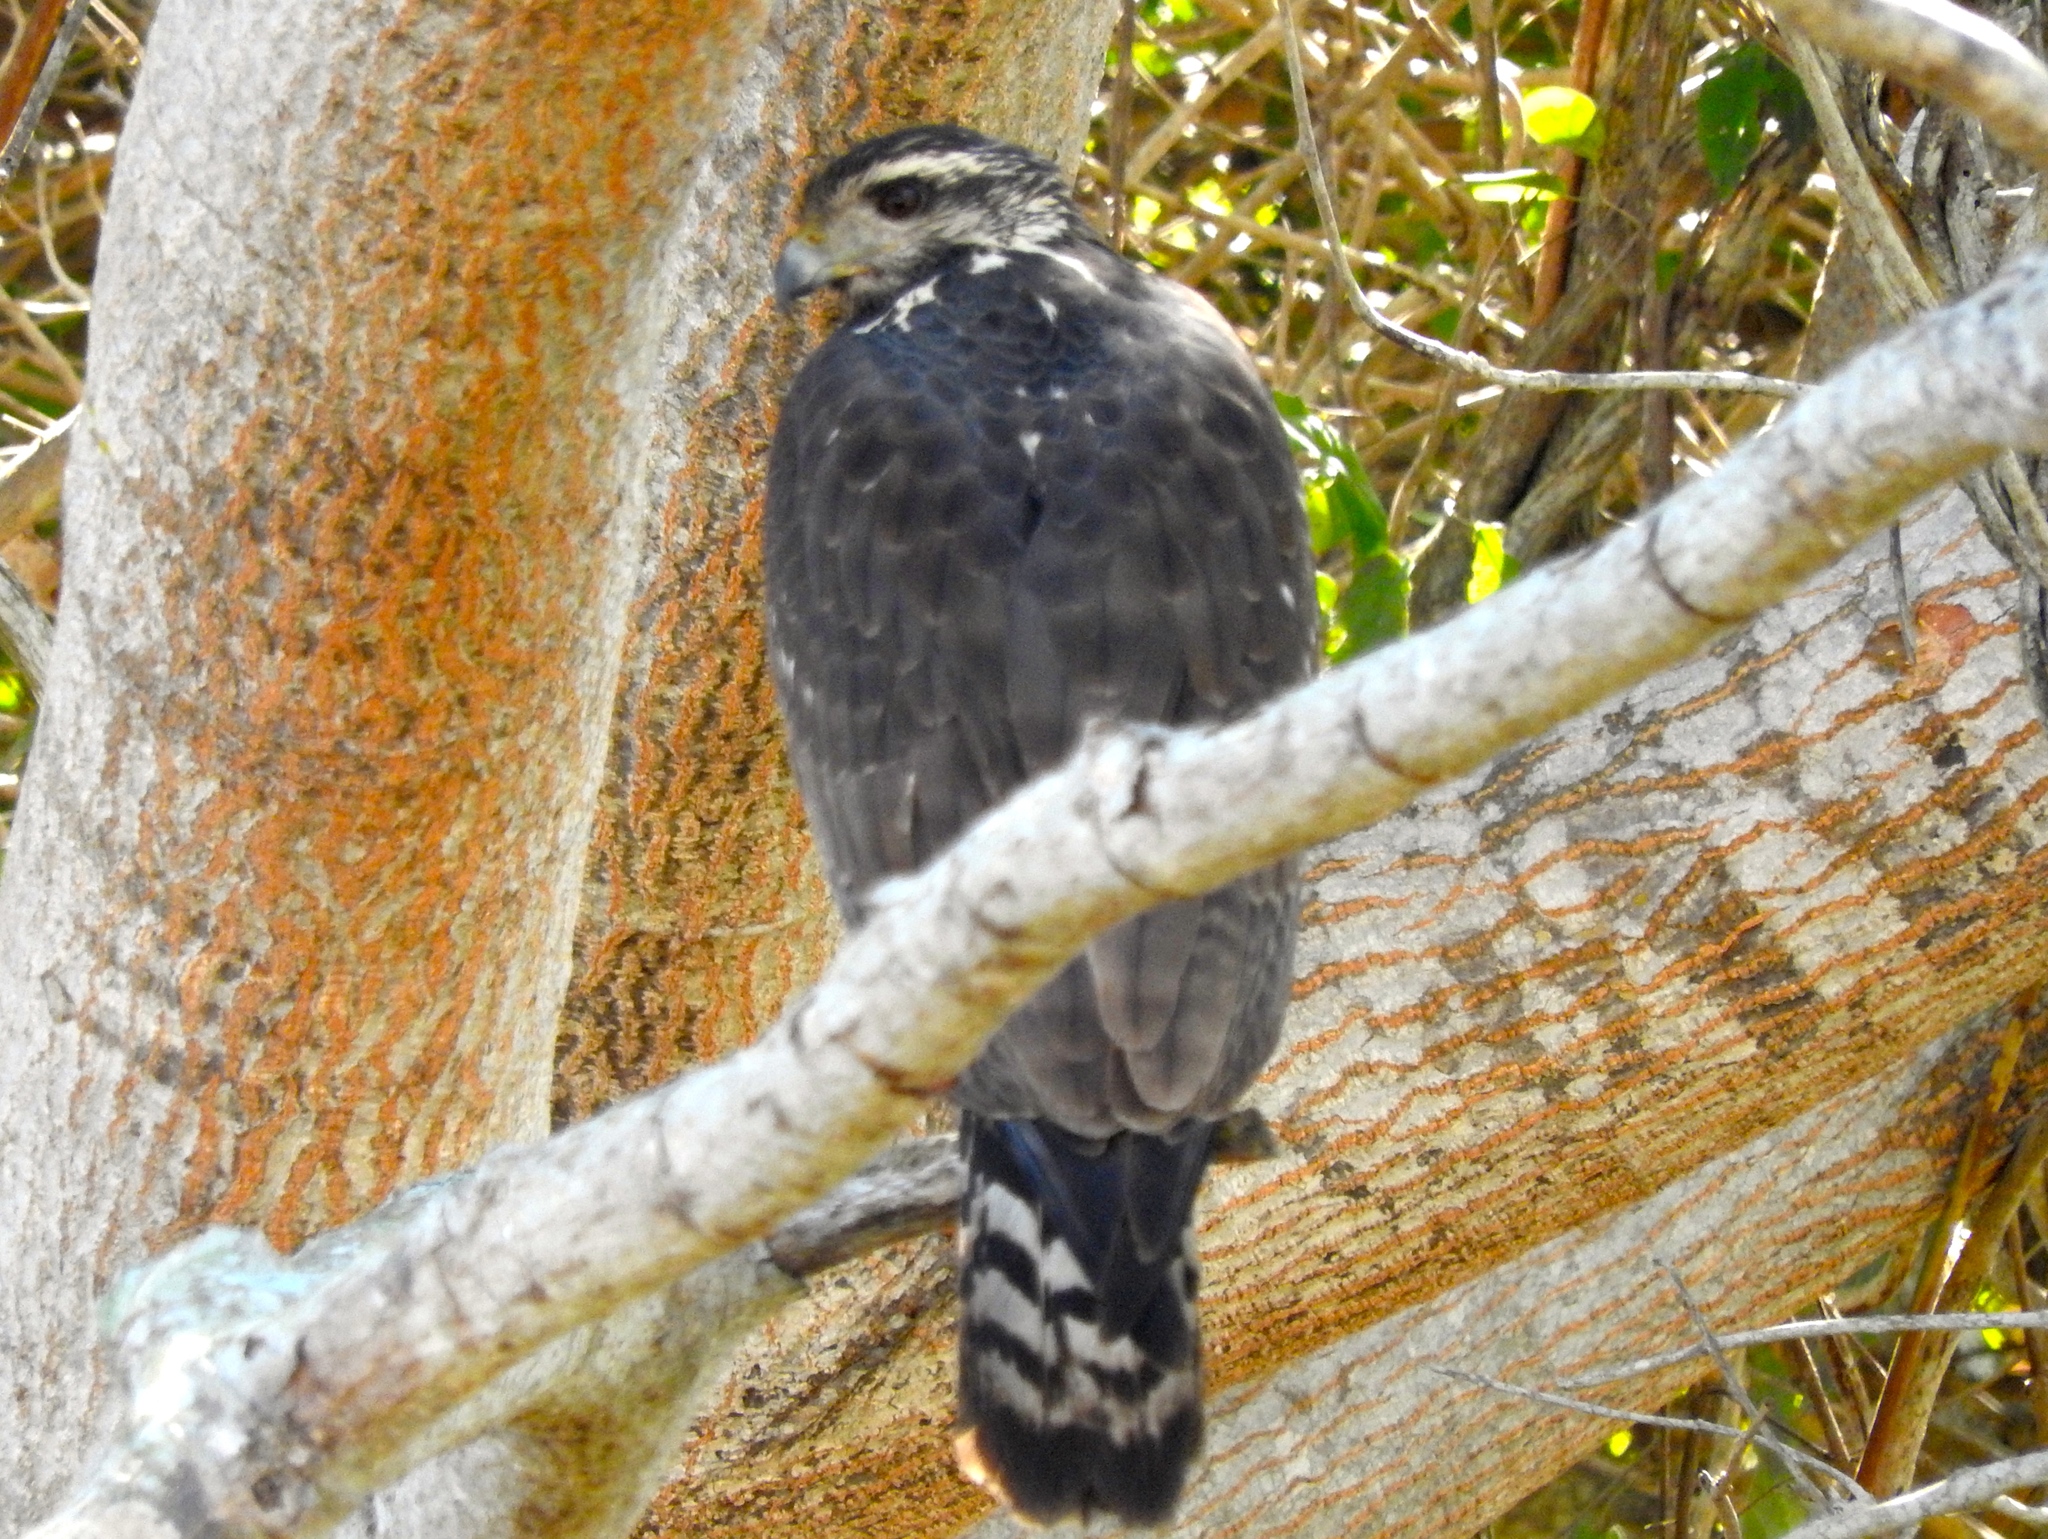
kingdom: Animalia
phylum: Chordata
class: Aves
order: Accipitriformes
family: Accipitridae
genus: Buteogallus
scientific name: Buteogallus anthracinus
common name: Common black hawk
